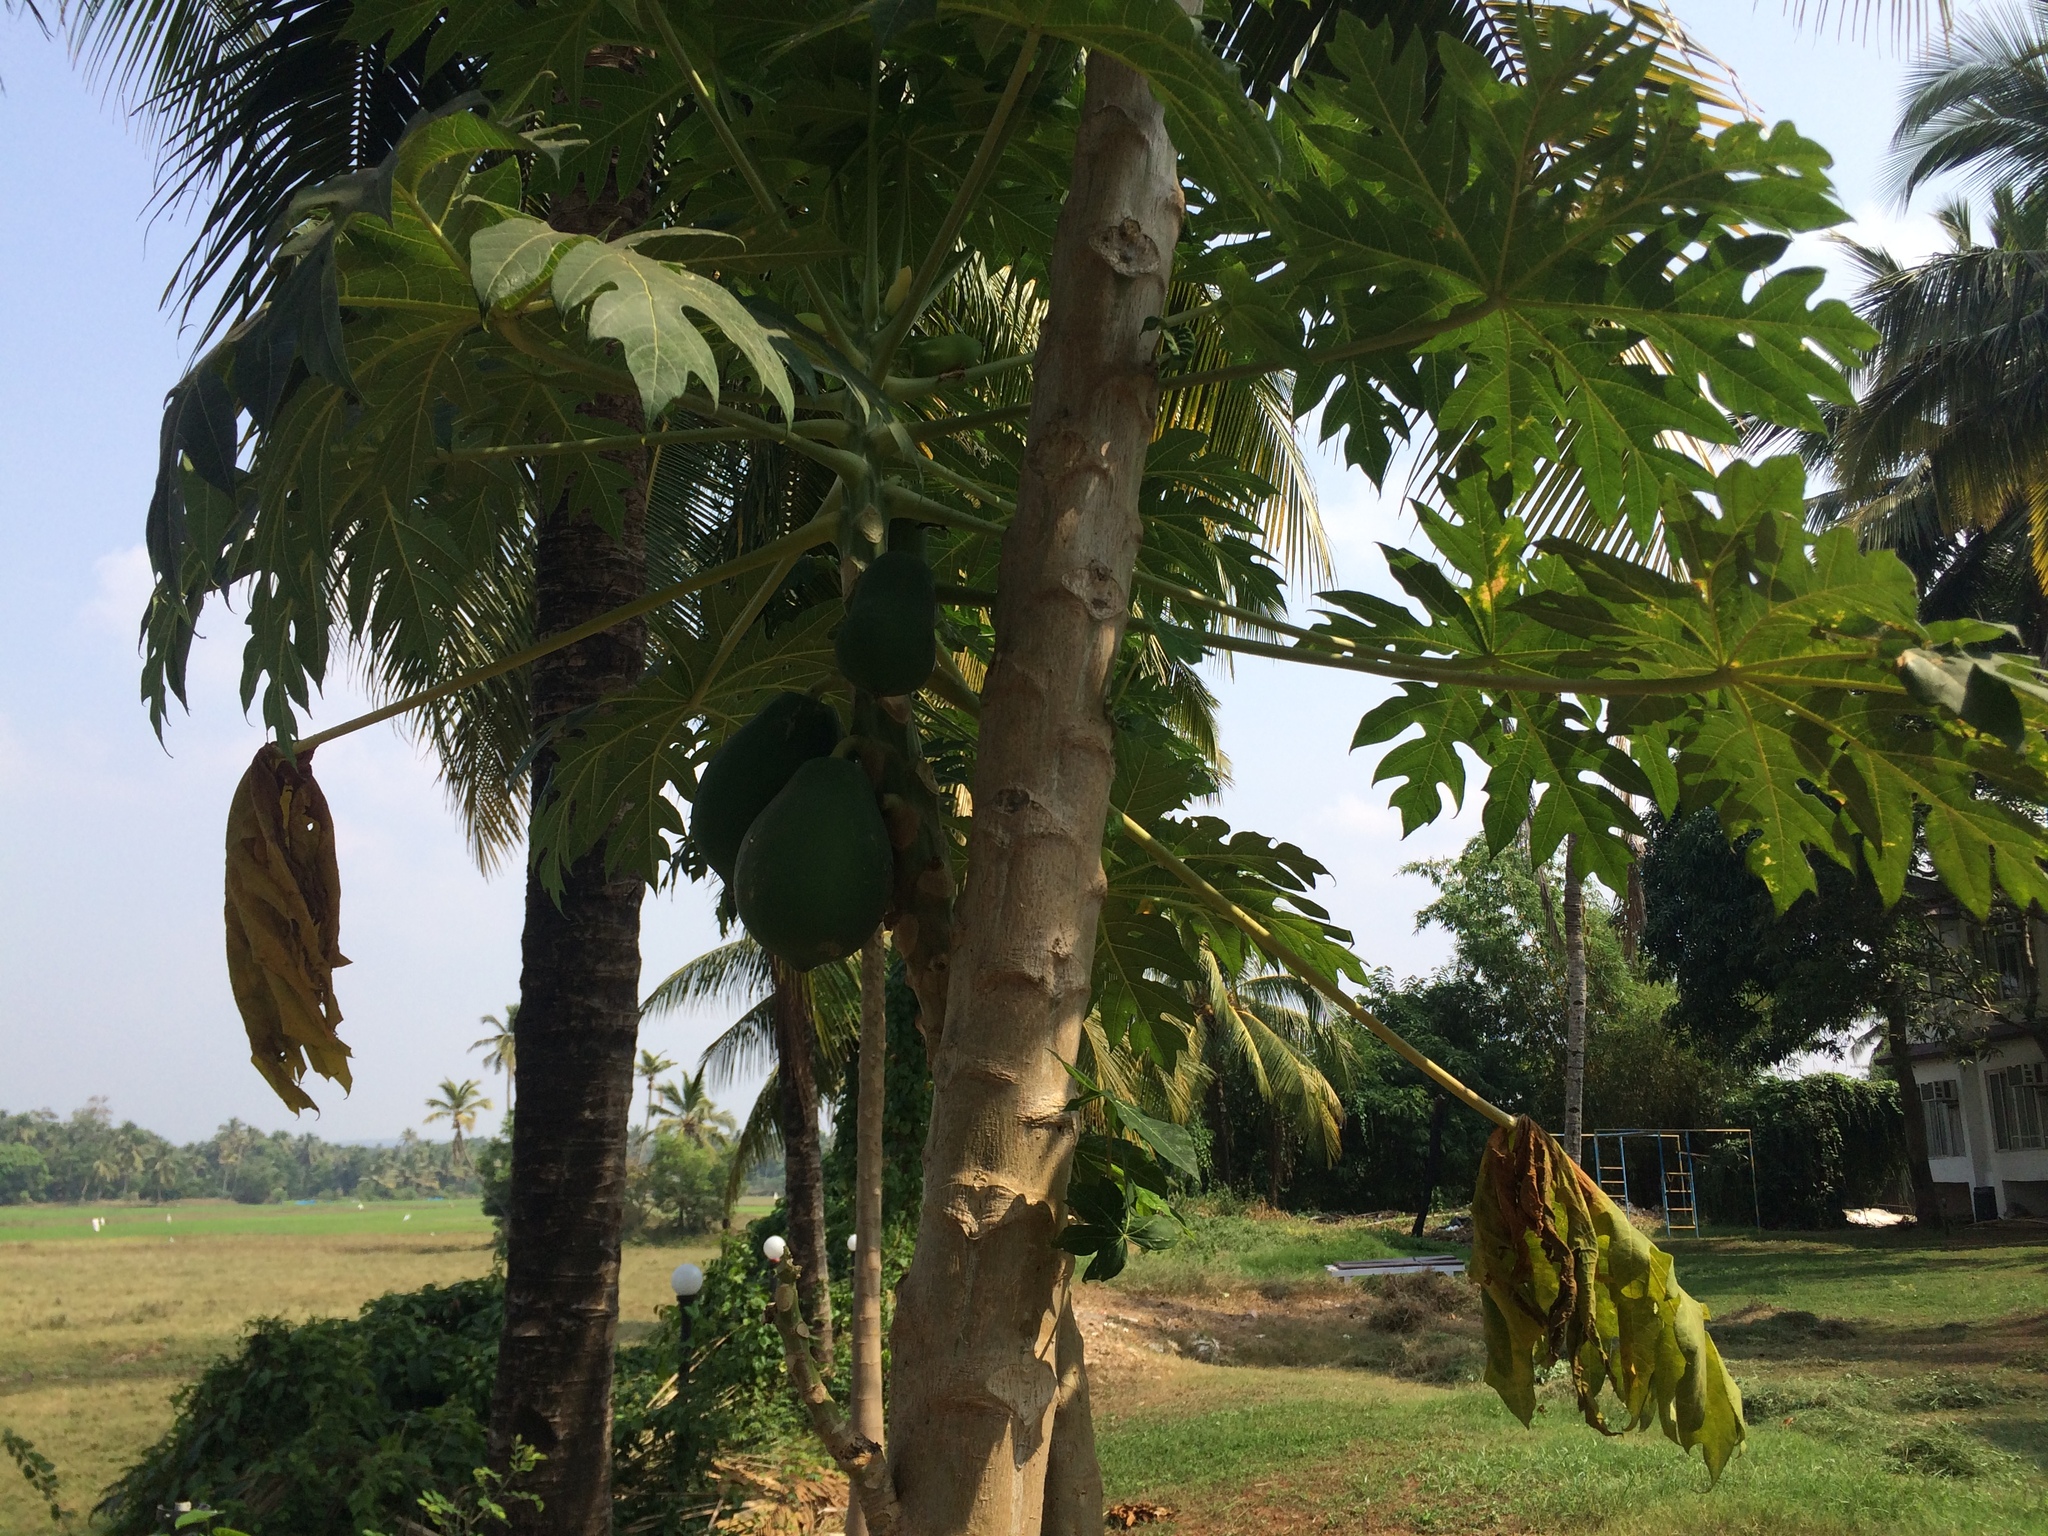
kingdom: Plantae
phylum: Tracheophyta
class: Magnoliopsida
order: Brassicales
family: Caricaceae
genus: Carica
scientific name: Carica papaya
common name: Papaya
